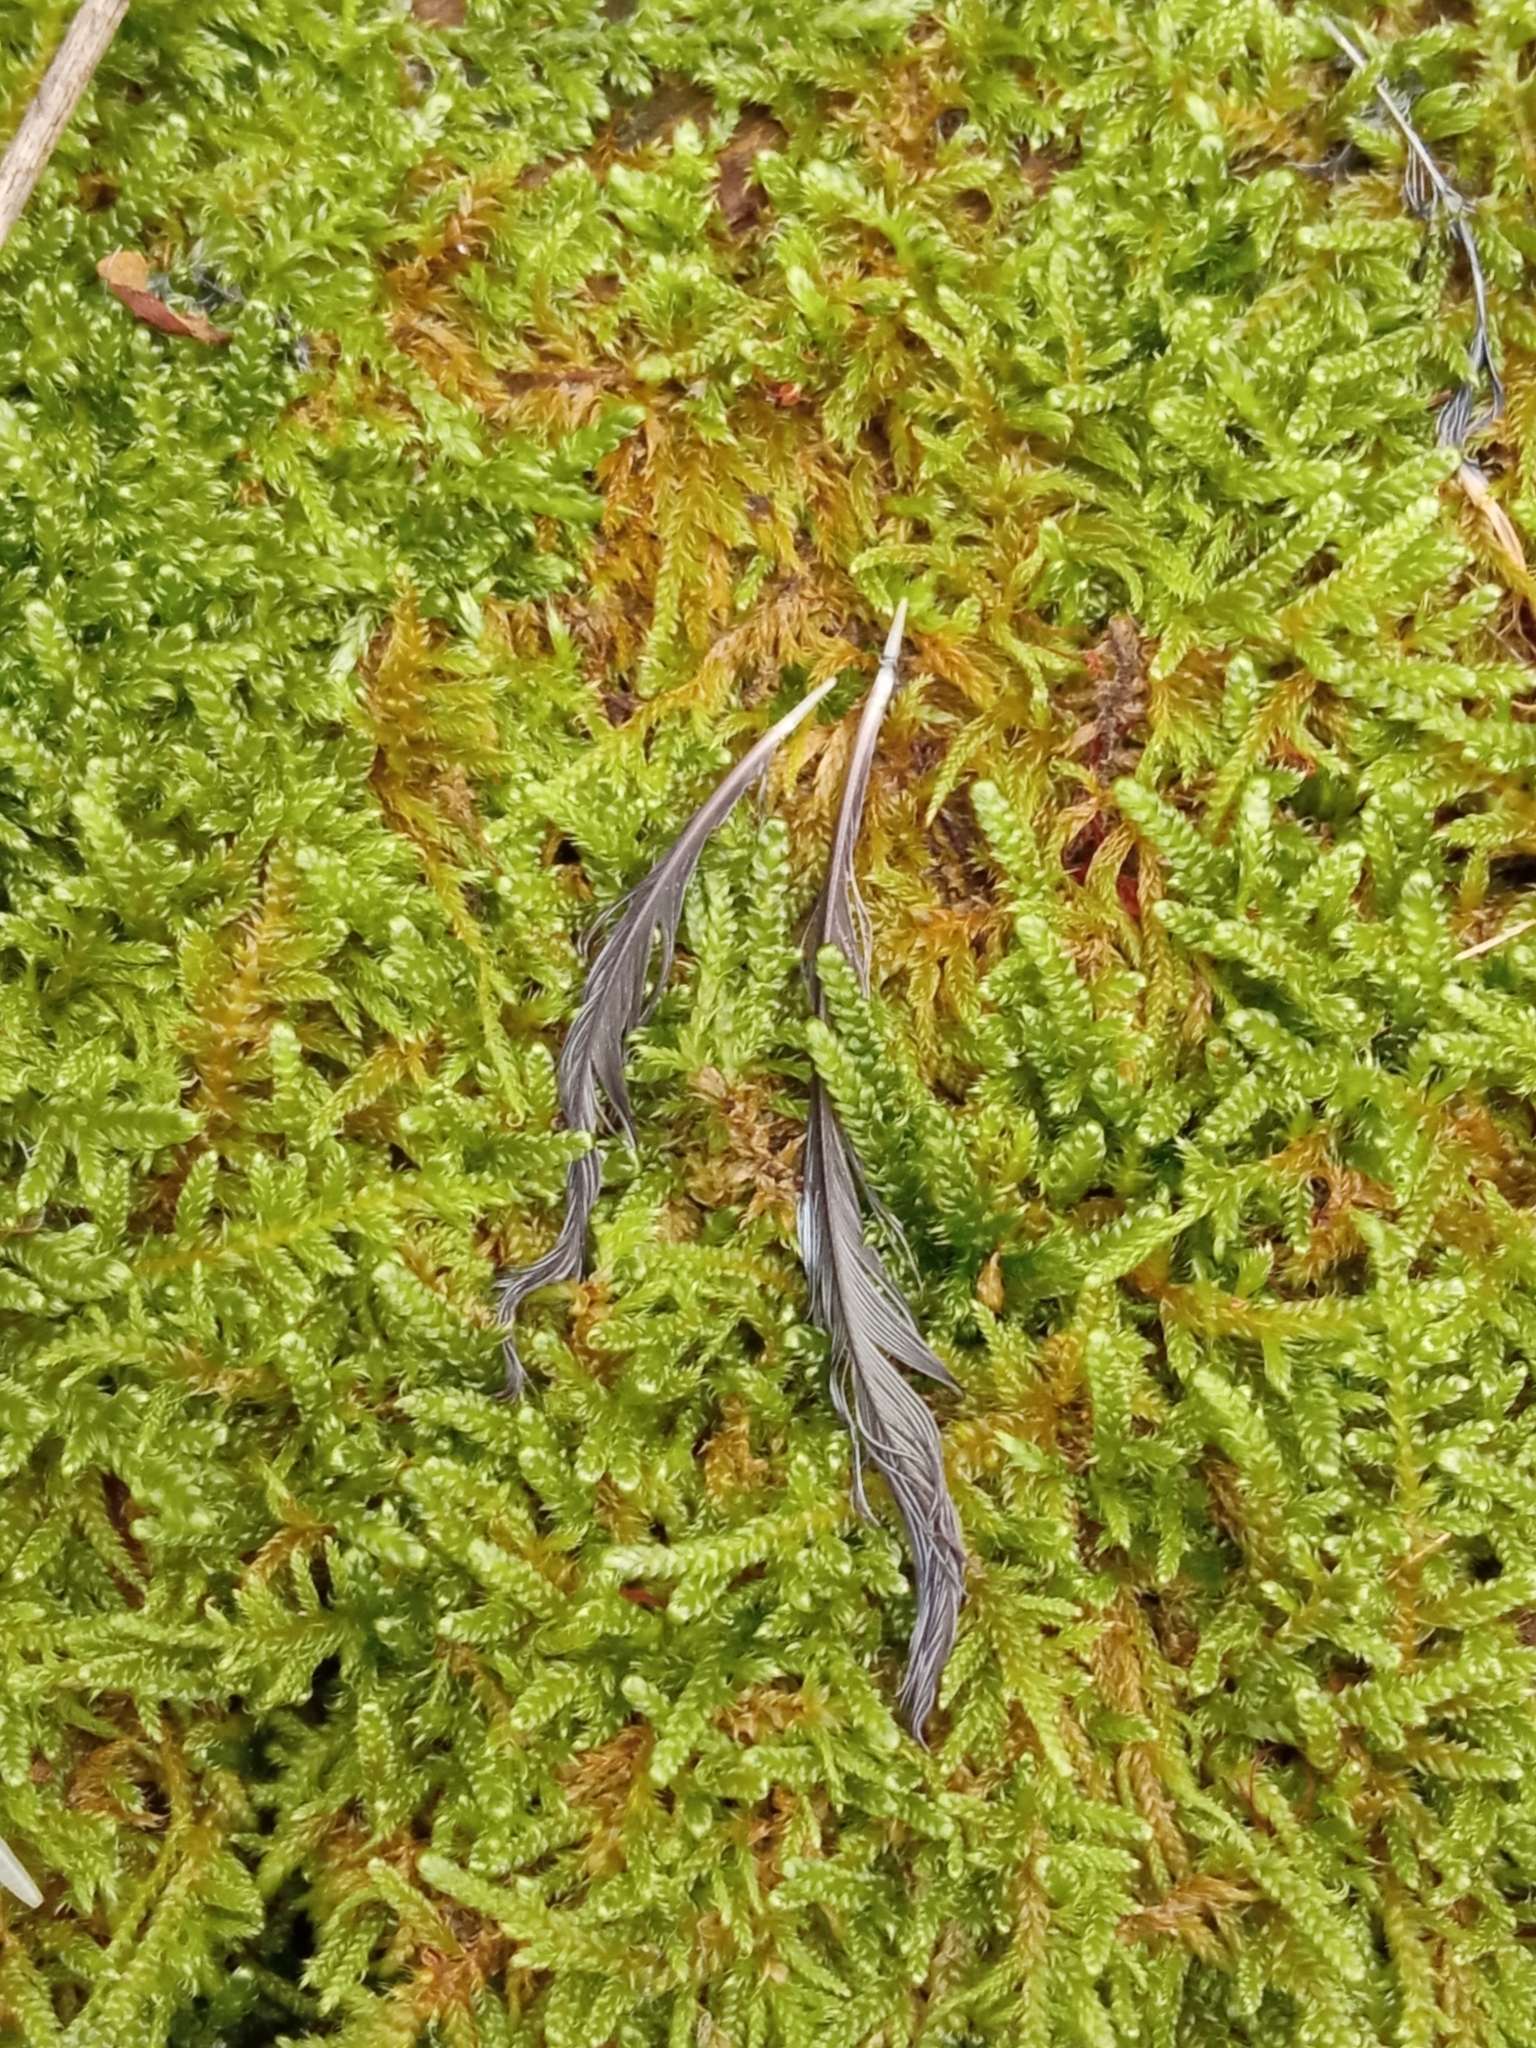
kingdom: Animalia
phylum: Chordata
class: Aves
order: Passeriformes
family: Sittidae
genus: Sitta
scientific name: Sitta europaea
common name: Eurasian nuthatch
